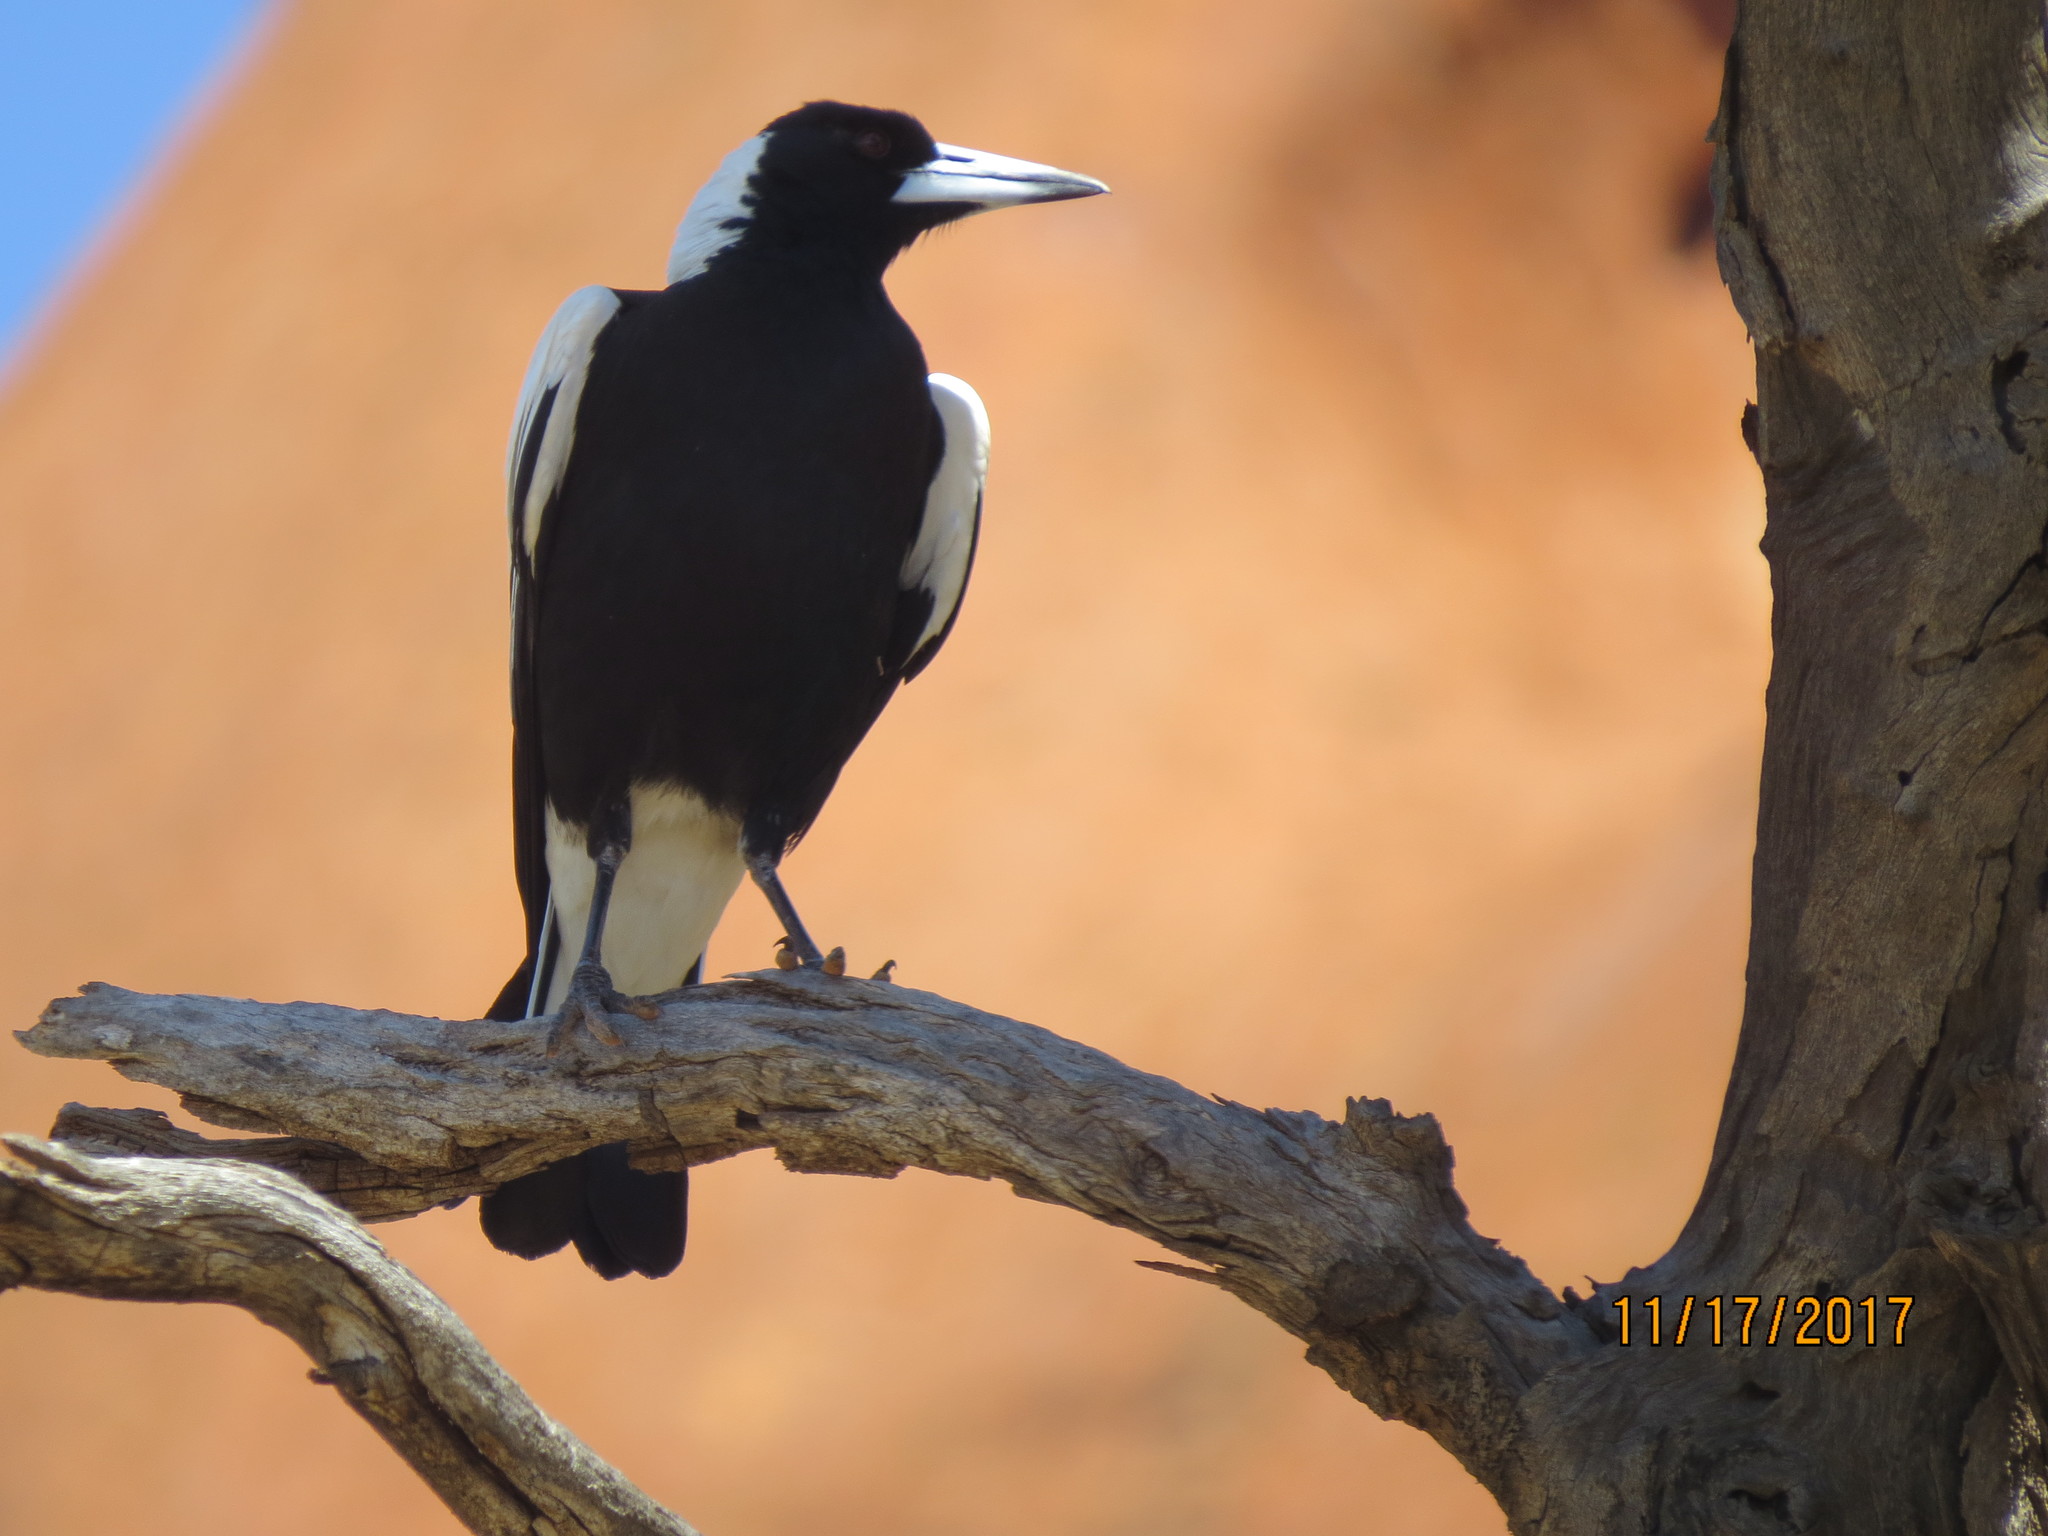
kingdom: Animalia
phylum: Chordata
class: Aves
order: Passeriformes
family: Cracticidae
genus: Gymnorhina
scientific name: Gymnorhina tibicen
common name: Australian magpie
